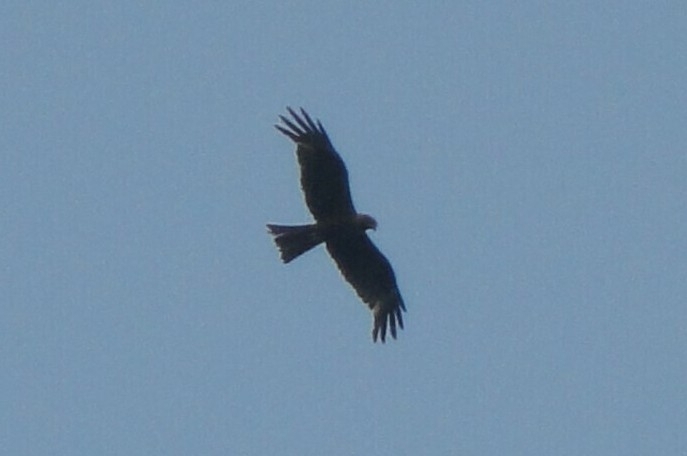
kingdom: Animalia
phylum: Chordata
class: Aves
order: Accipitriformes
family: Accipitridae
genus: Milvus
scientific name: Milvus migrans
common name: Black kite
